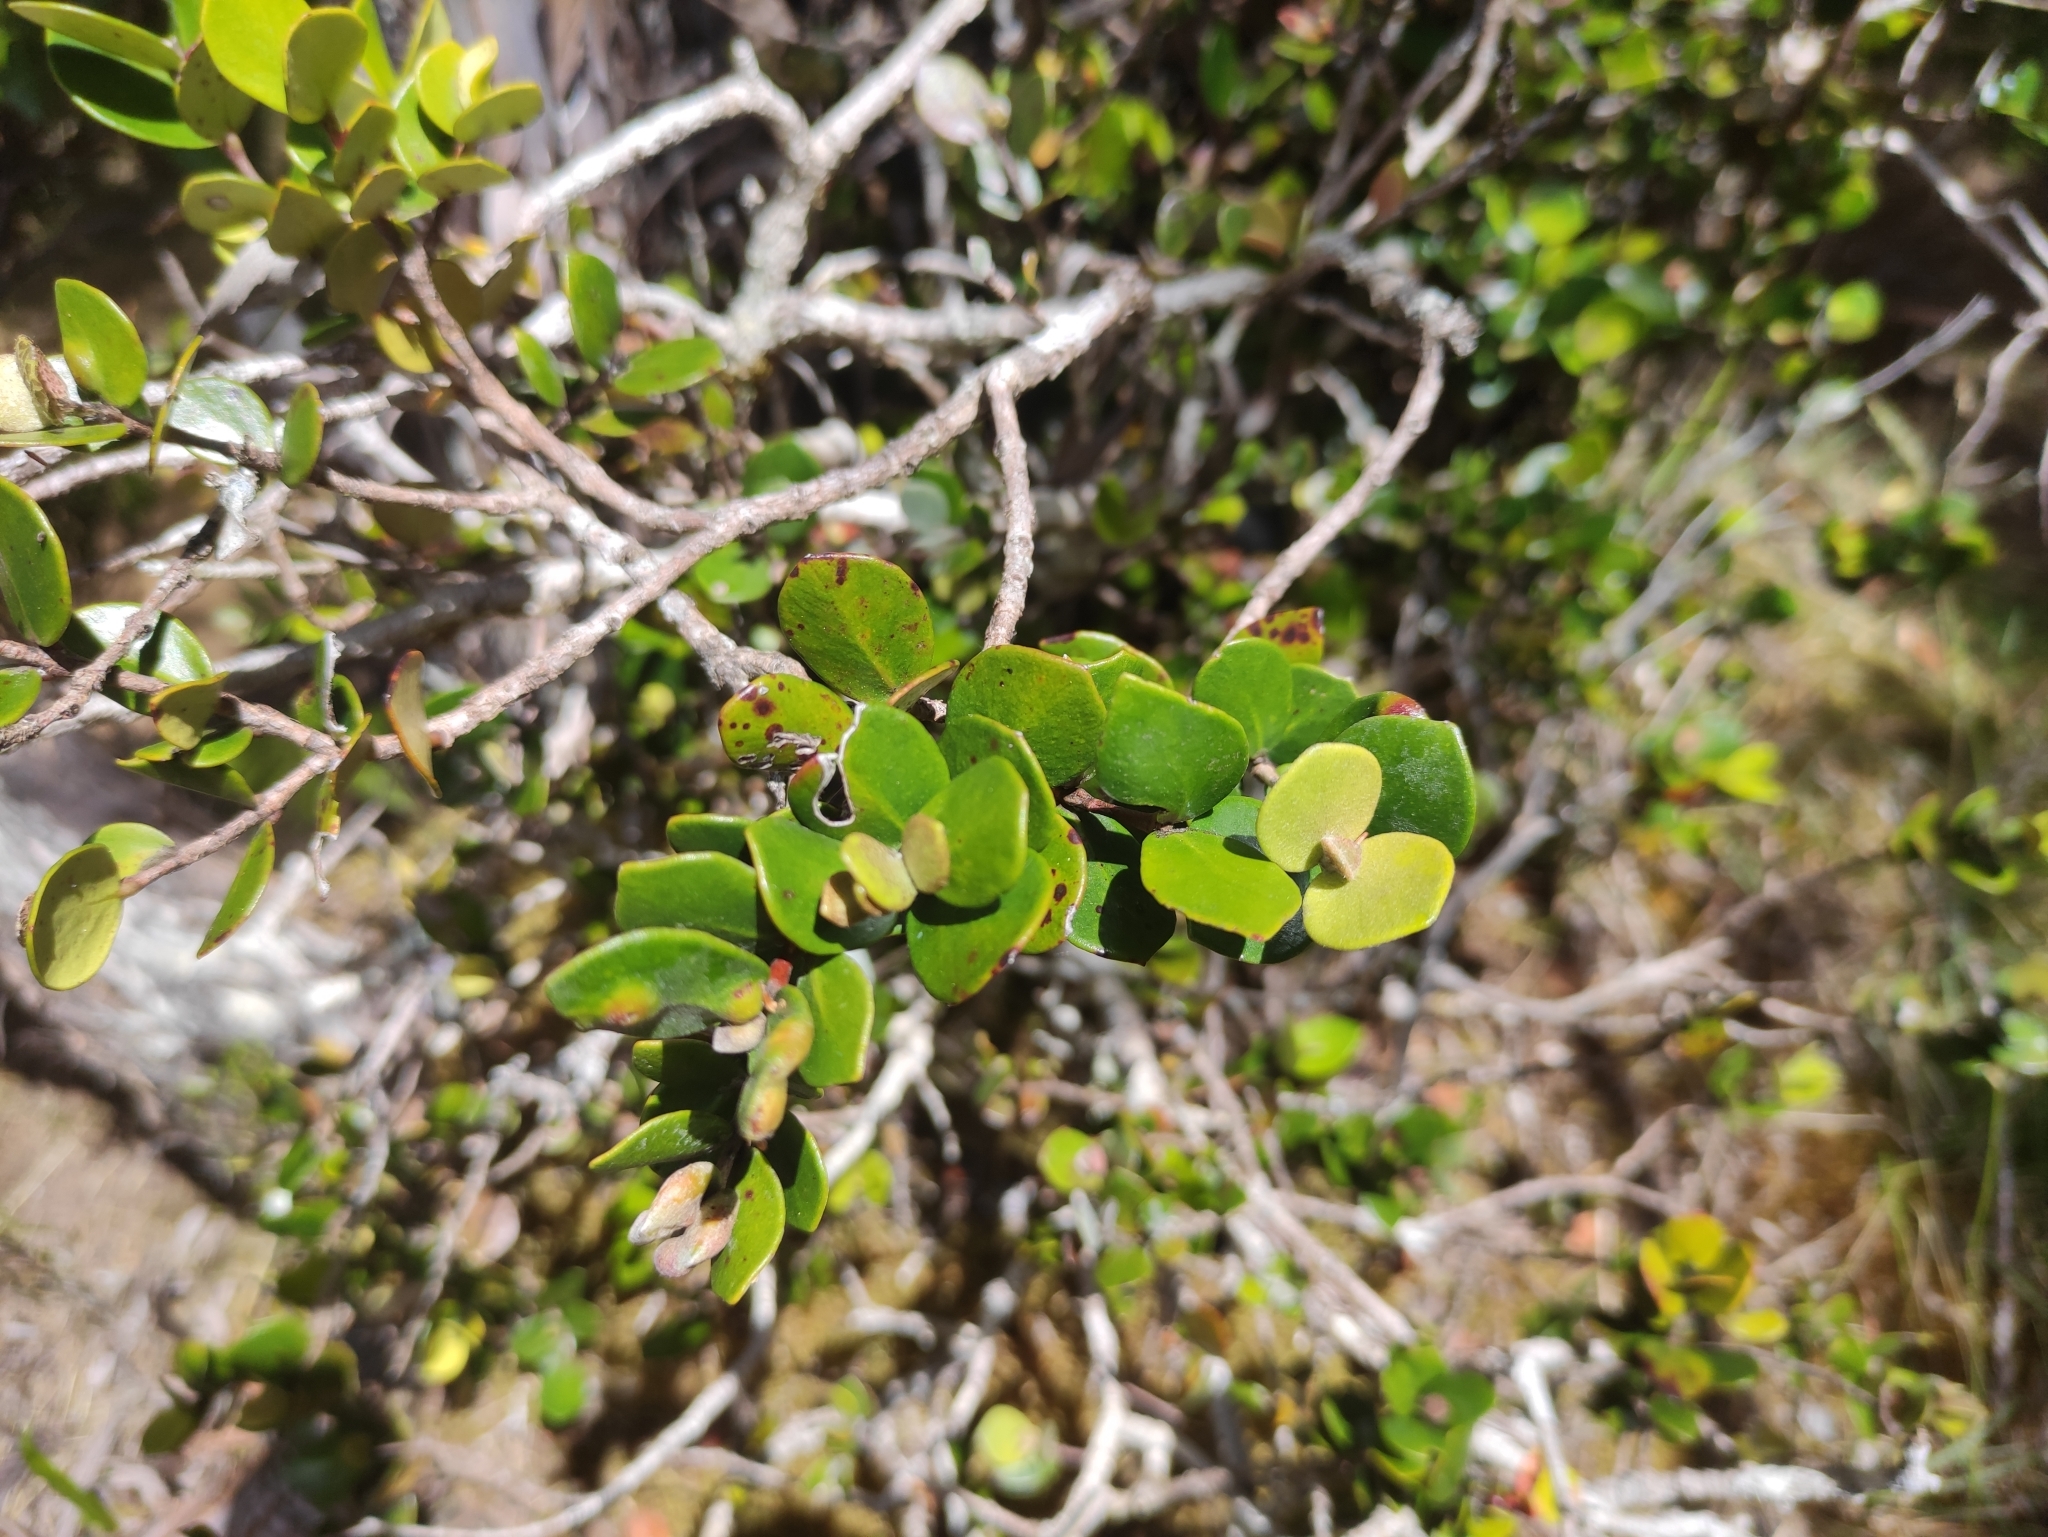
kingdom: Plantae
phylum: Tracheophyta
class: Magnoliopsida
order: Myrtales
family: Myrtaceae
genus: Eugenia
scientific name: Eugenia buxifolia
